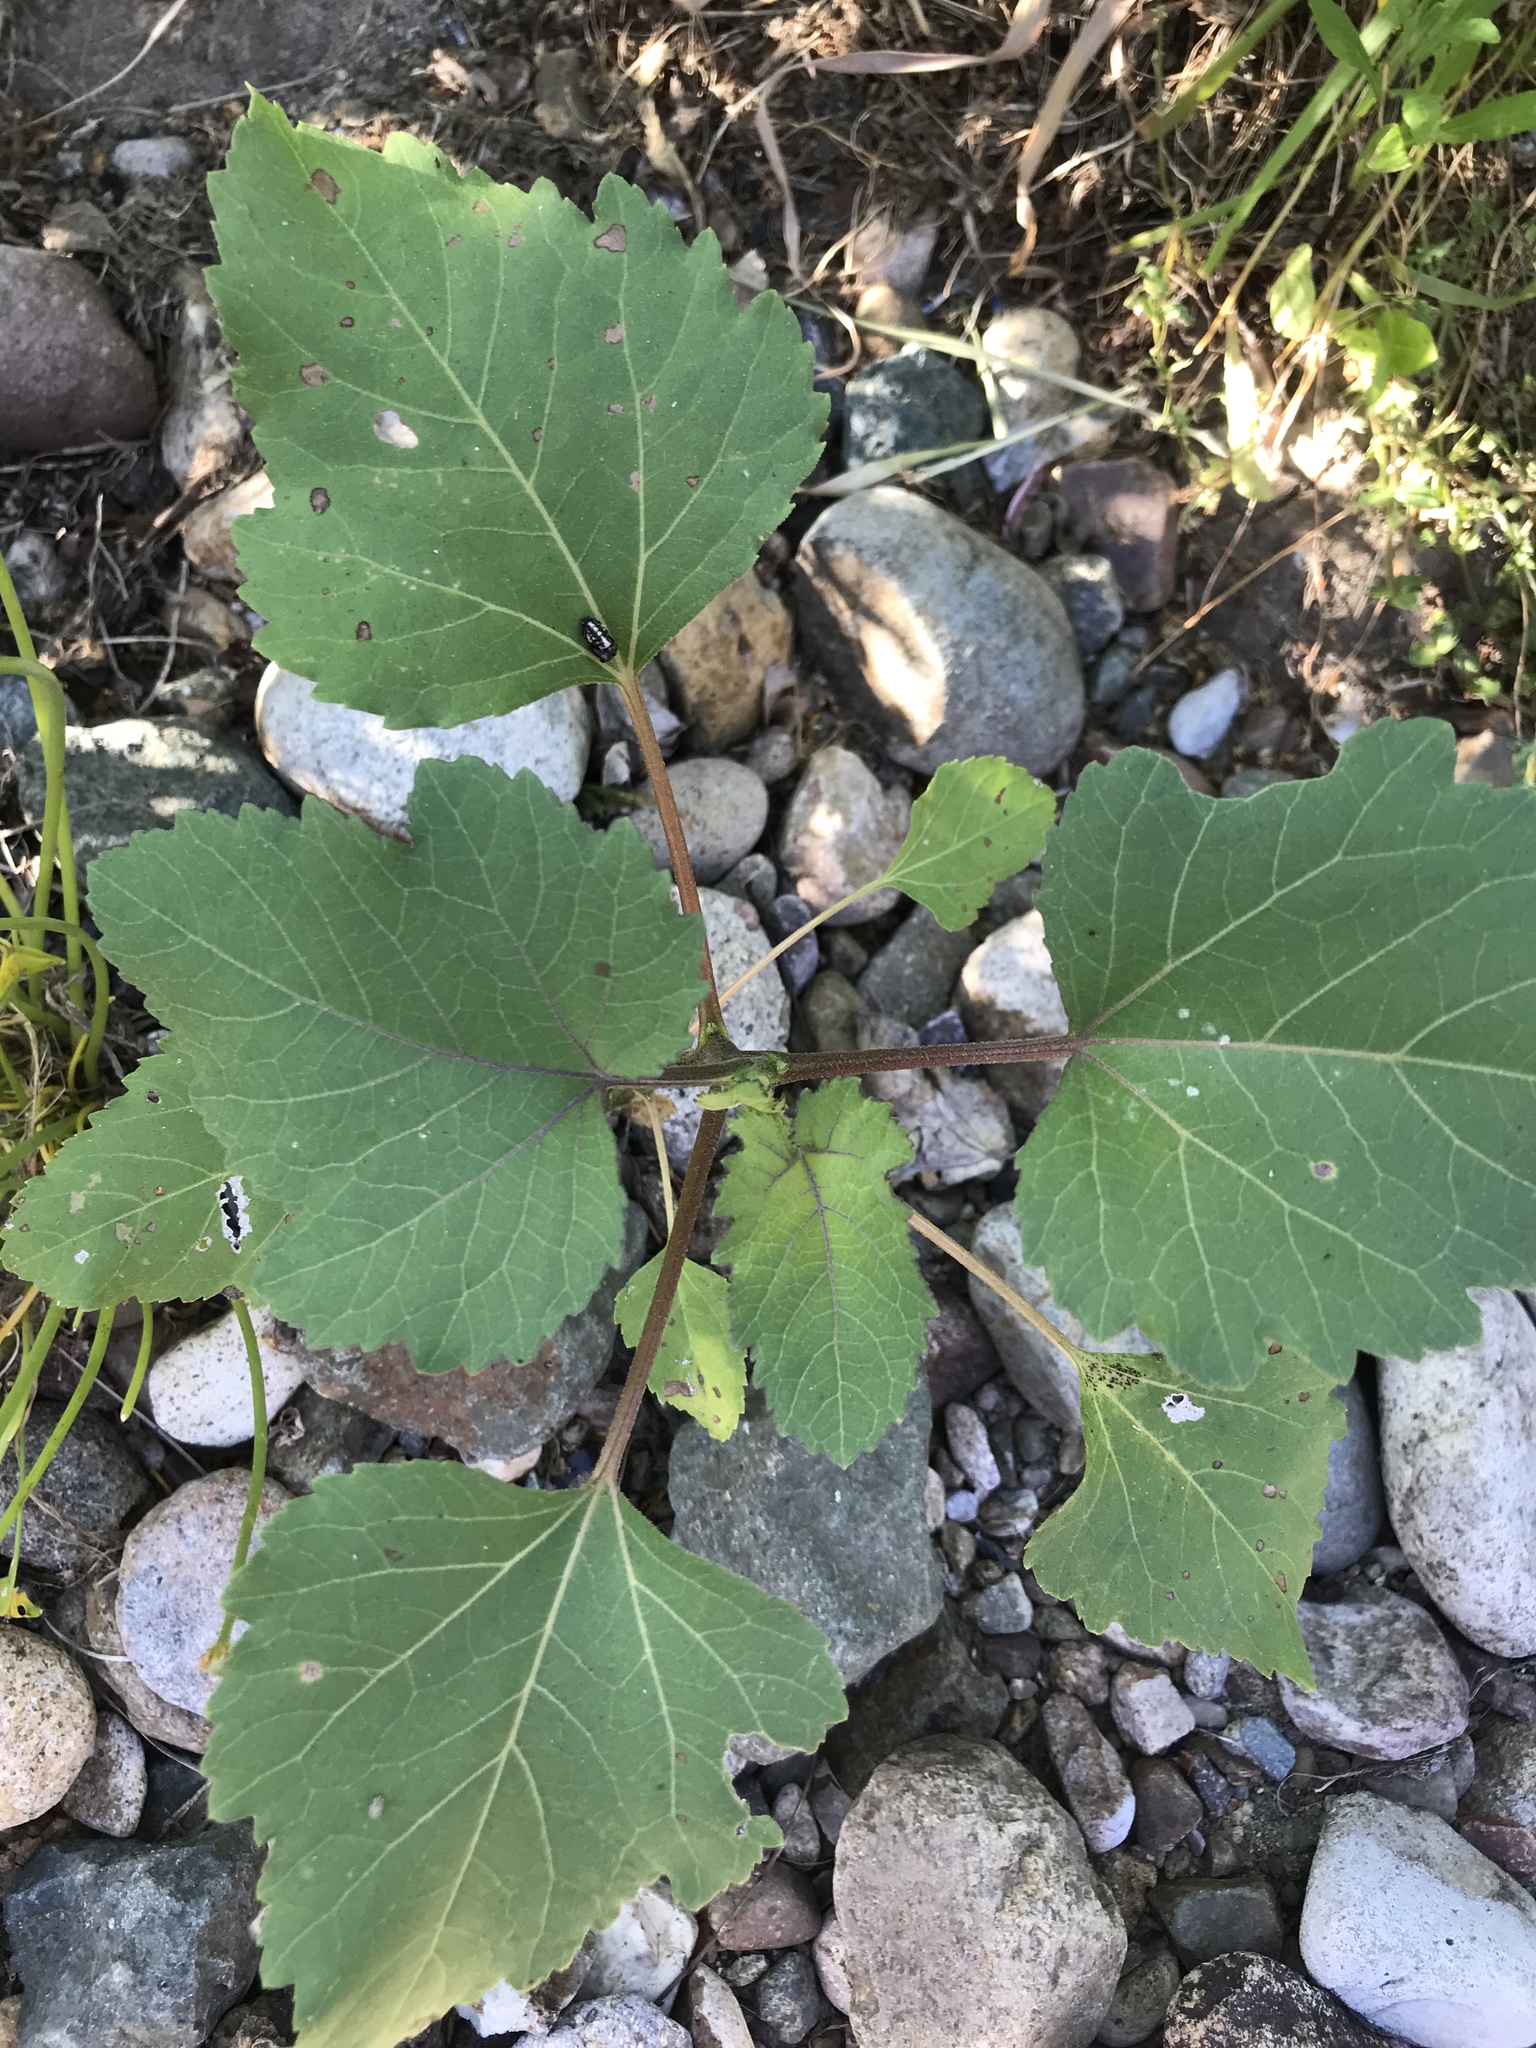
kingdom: Plantae
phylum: Tracheophyta
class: Magnoliopsida
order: Asterales
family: Asteraceae
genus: Xanthium
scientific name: Xanthium strumarium
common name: Rough cocklebur
